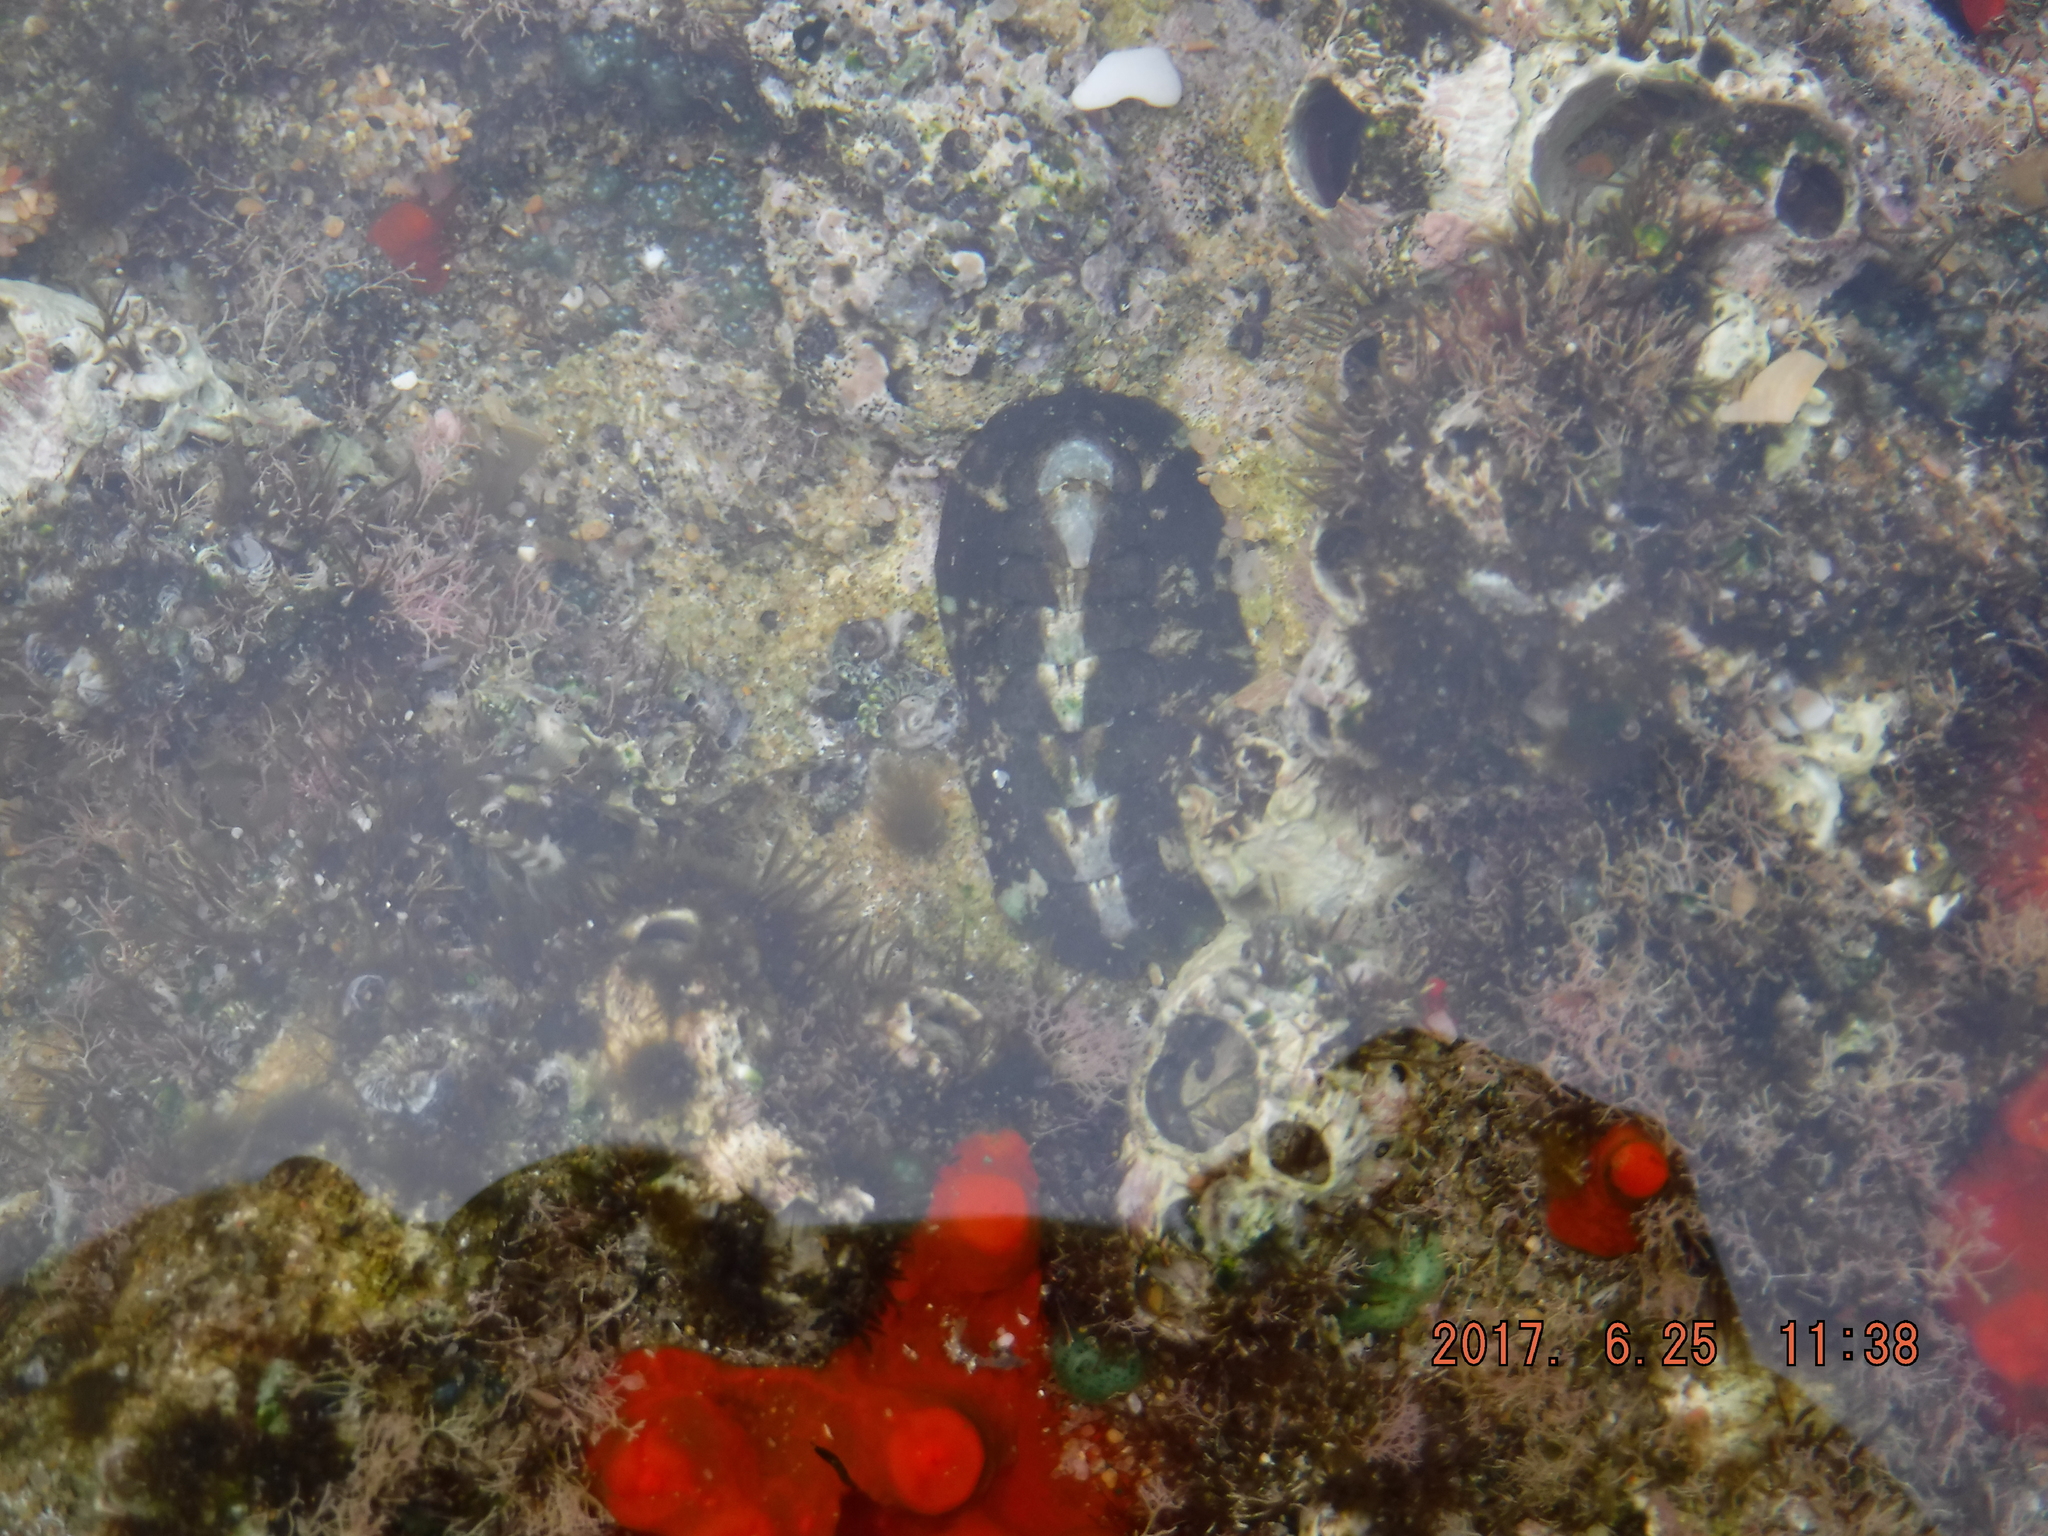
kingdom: Animalia
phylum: Mollusca
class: Polyplacophora
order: Chitonida
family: Chitonidae
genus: Onithochiton
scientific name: Onithochiton literatus
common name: Black chiton
